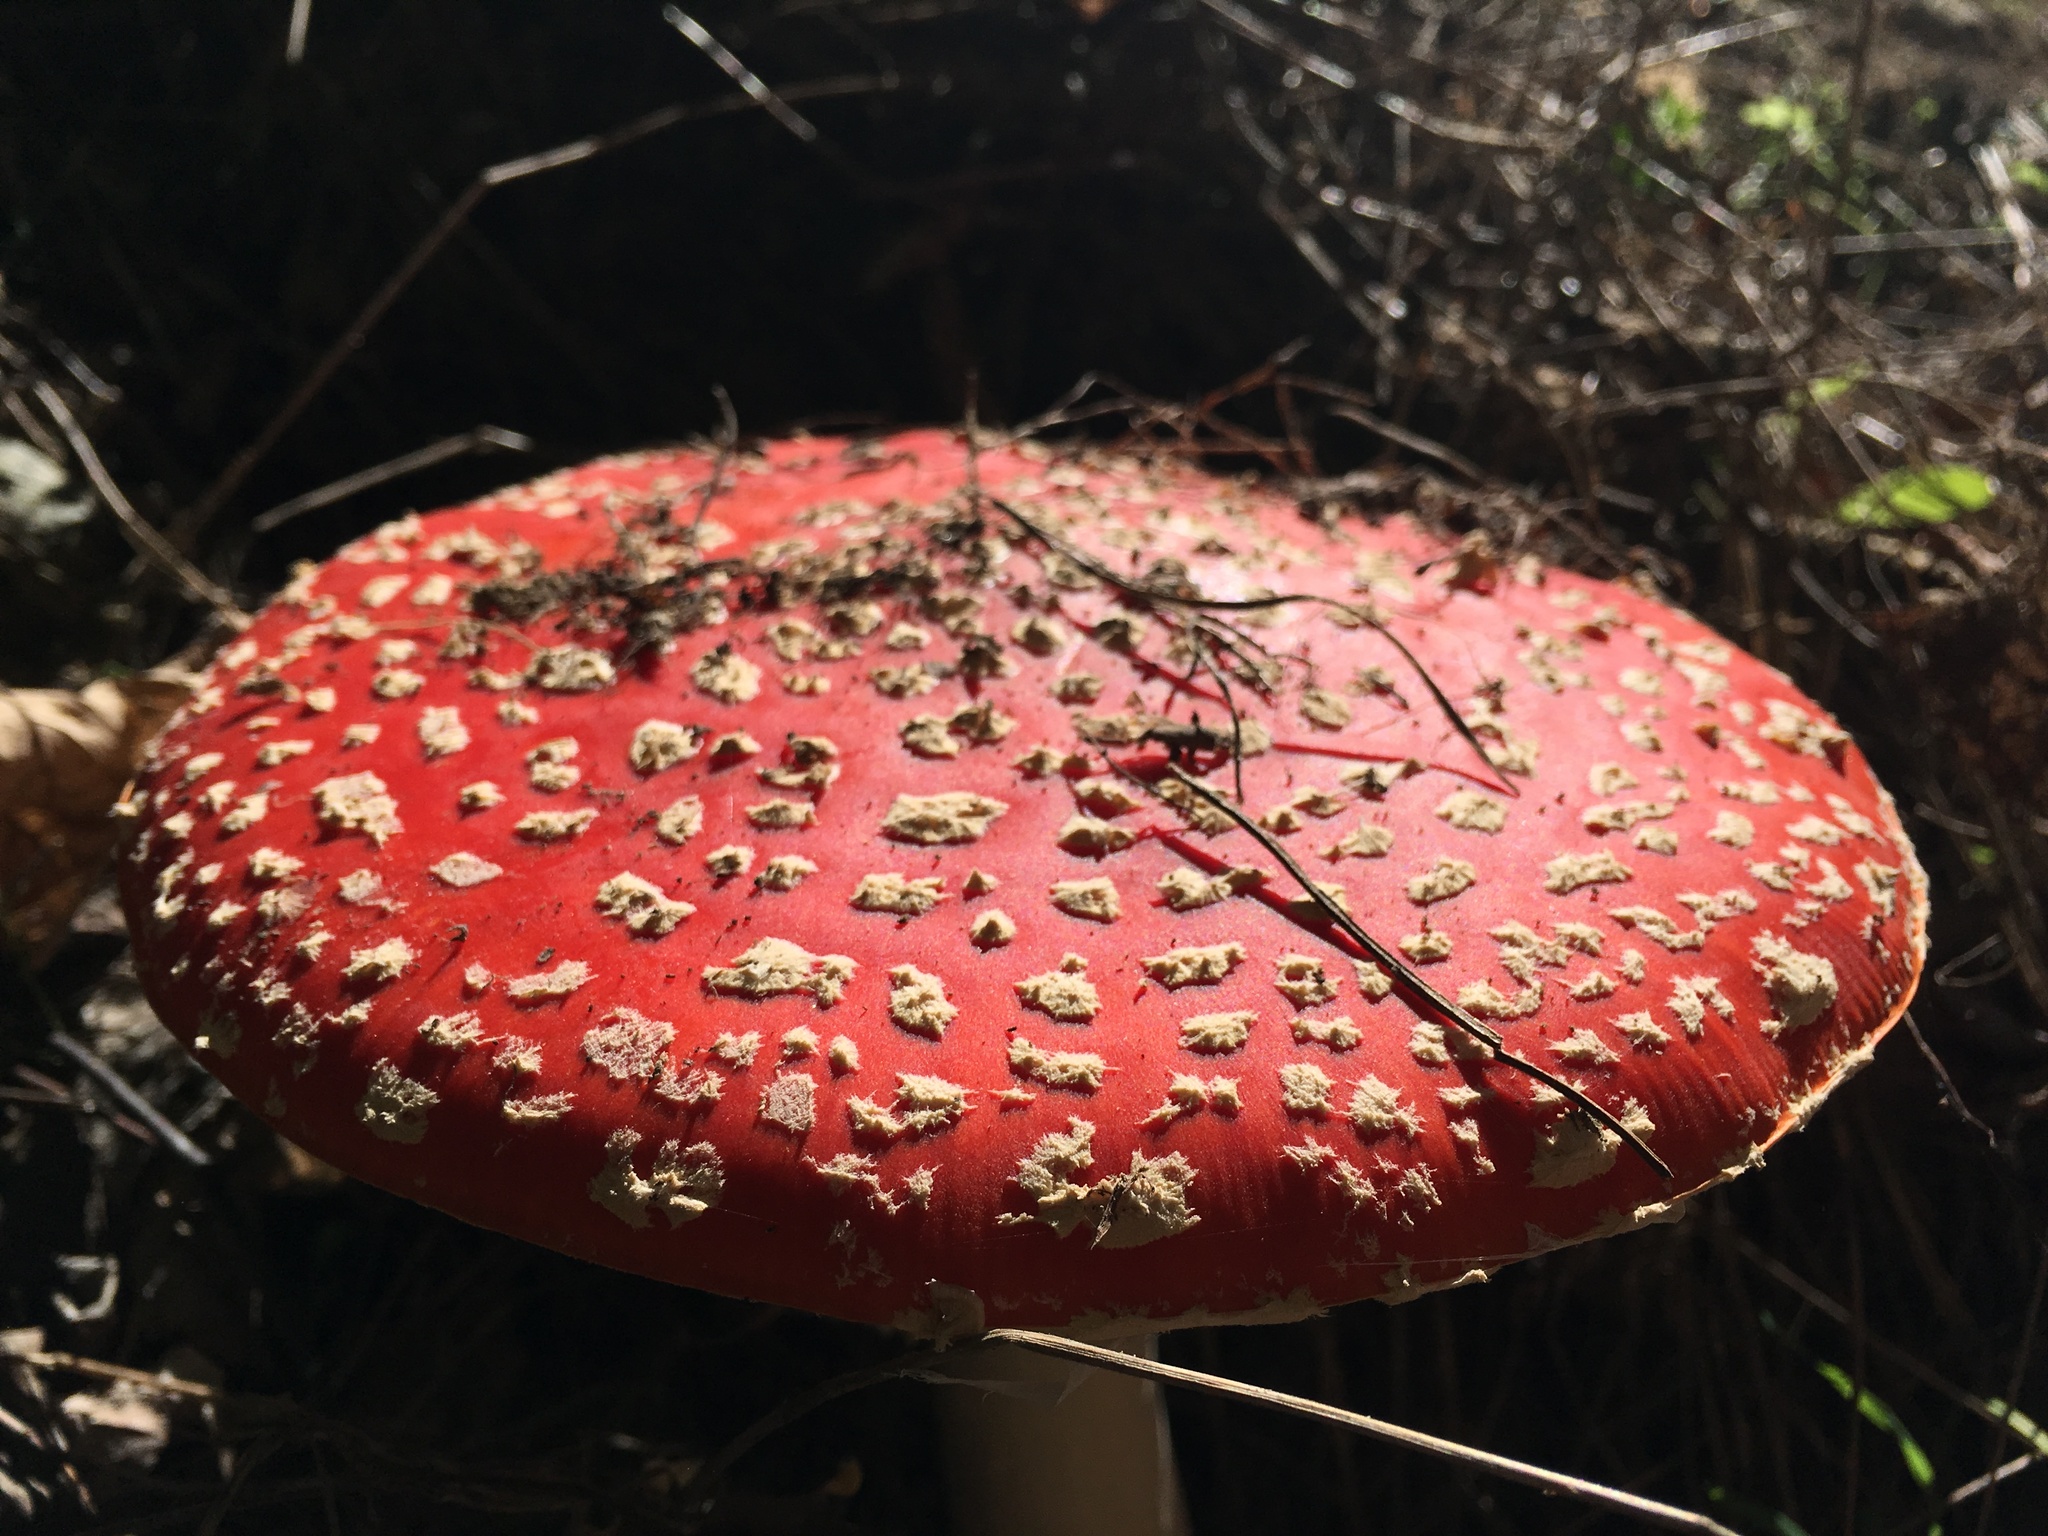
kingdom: Fungi
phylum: Basidiomycota
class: Agaricomycetes
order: Agaricales
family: Amanitaceae
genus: Amanita
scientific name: Amanita muscaria
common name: Fly agaric
